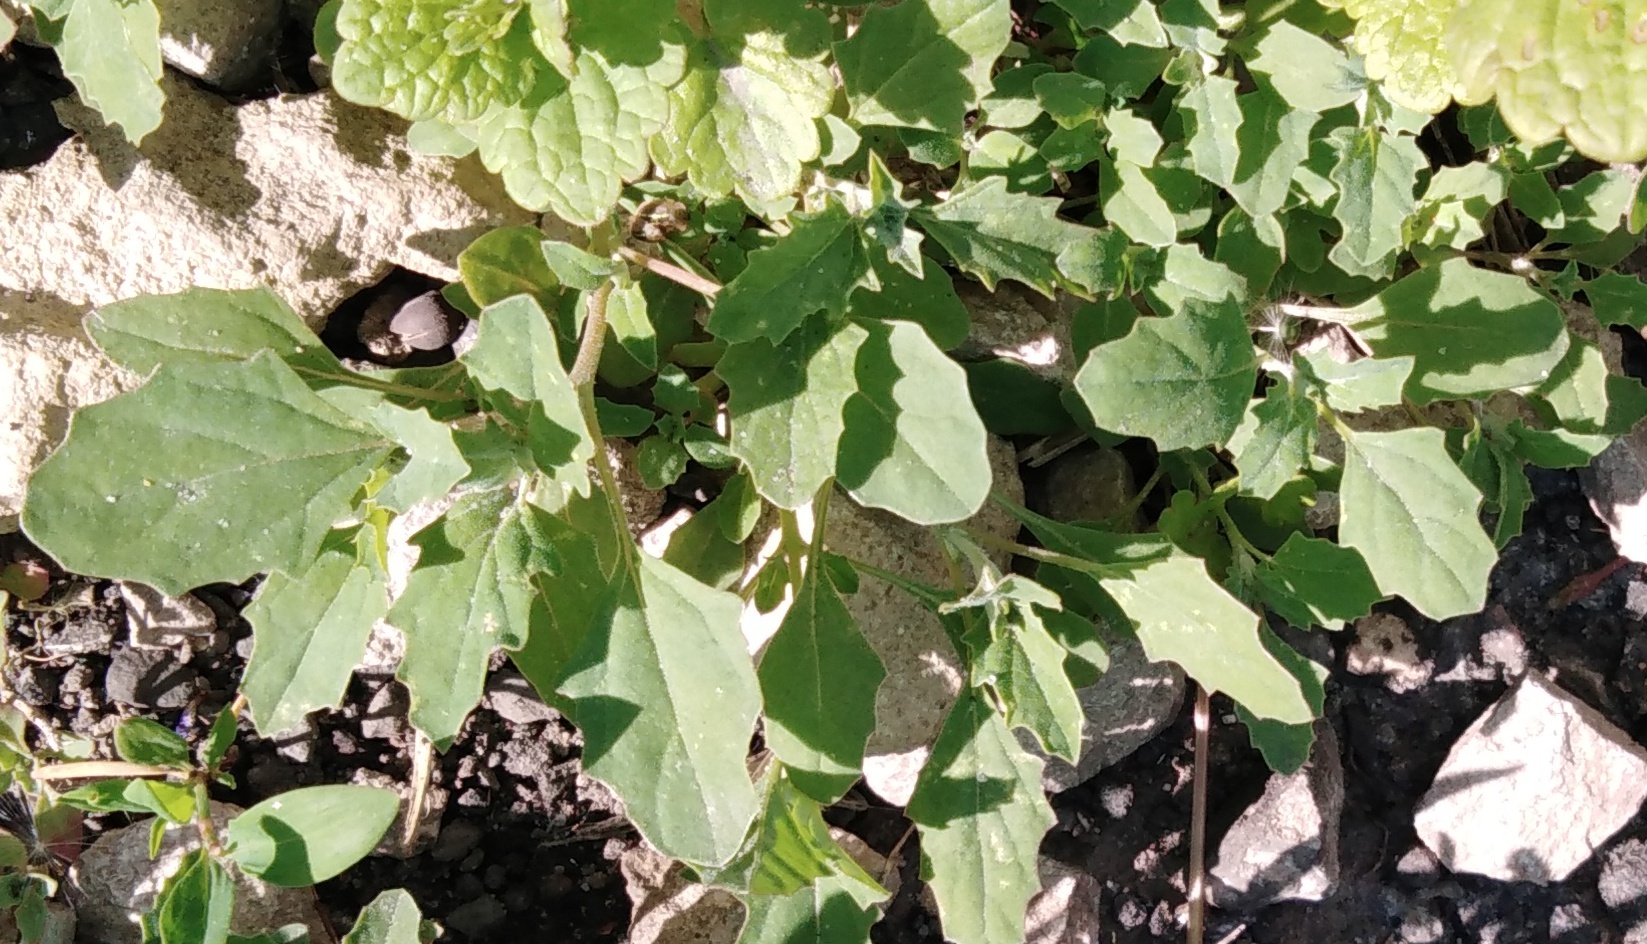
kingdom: Plantae
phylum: Tracheophyta
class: Magnoliopsida
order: Caryophyllales
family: Amaranthaceae
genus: Atriplex
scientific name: Atriplex tatarica
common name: Tatarian orache
